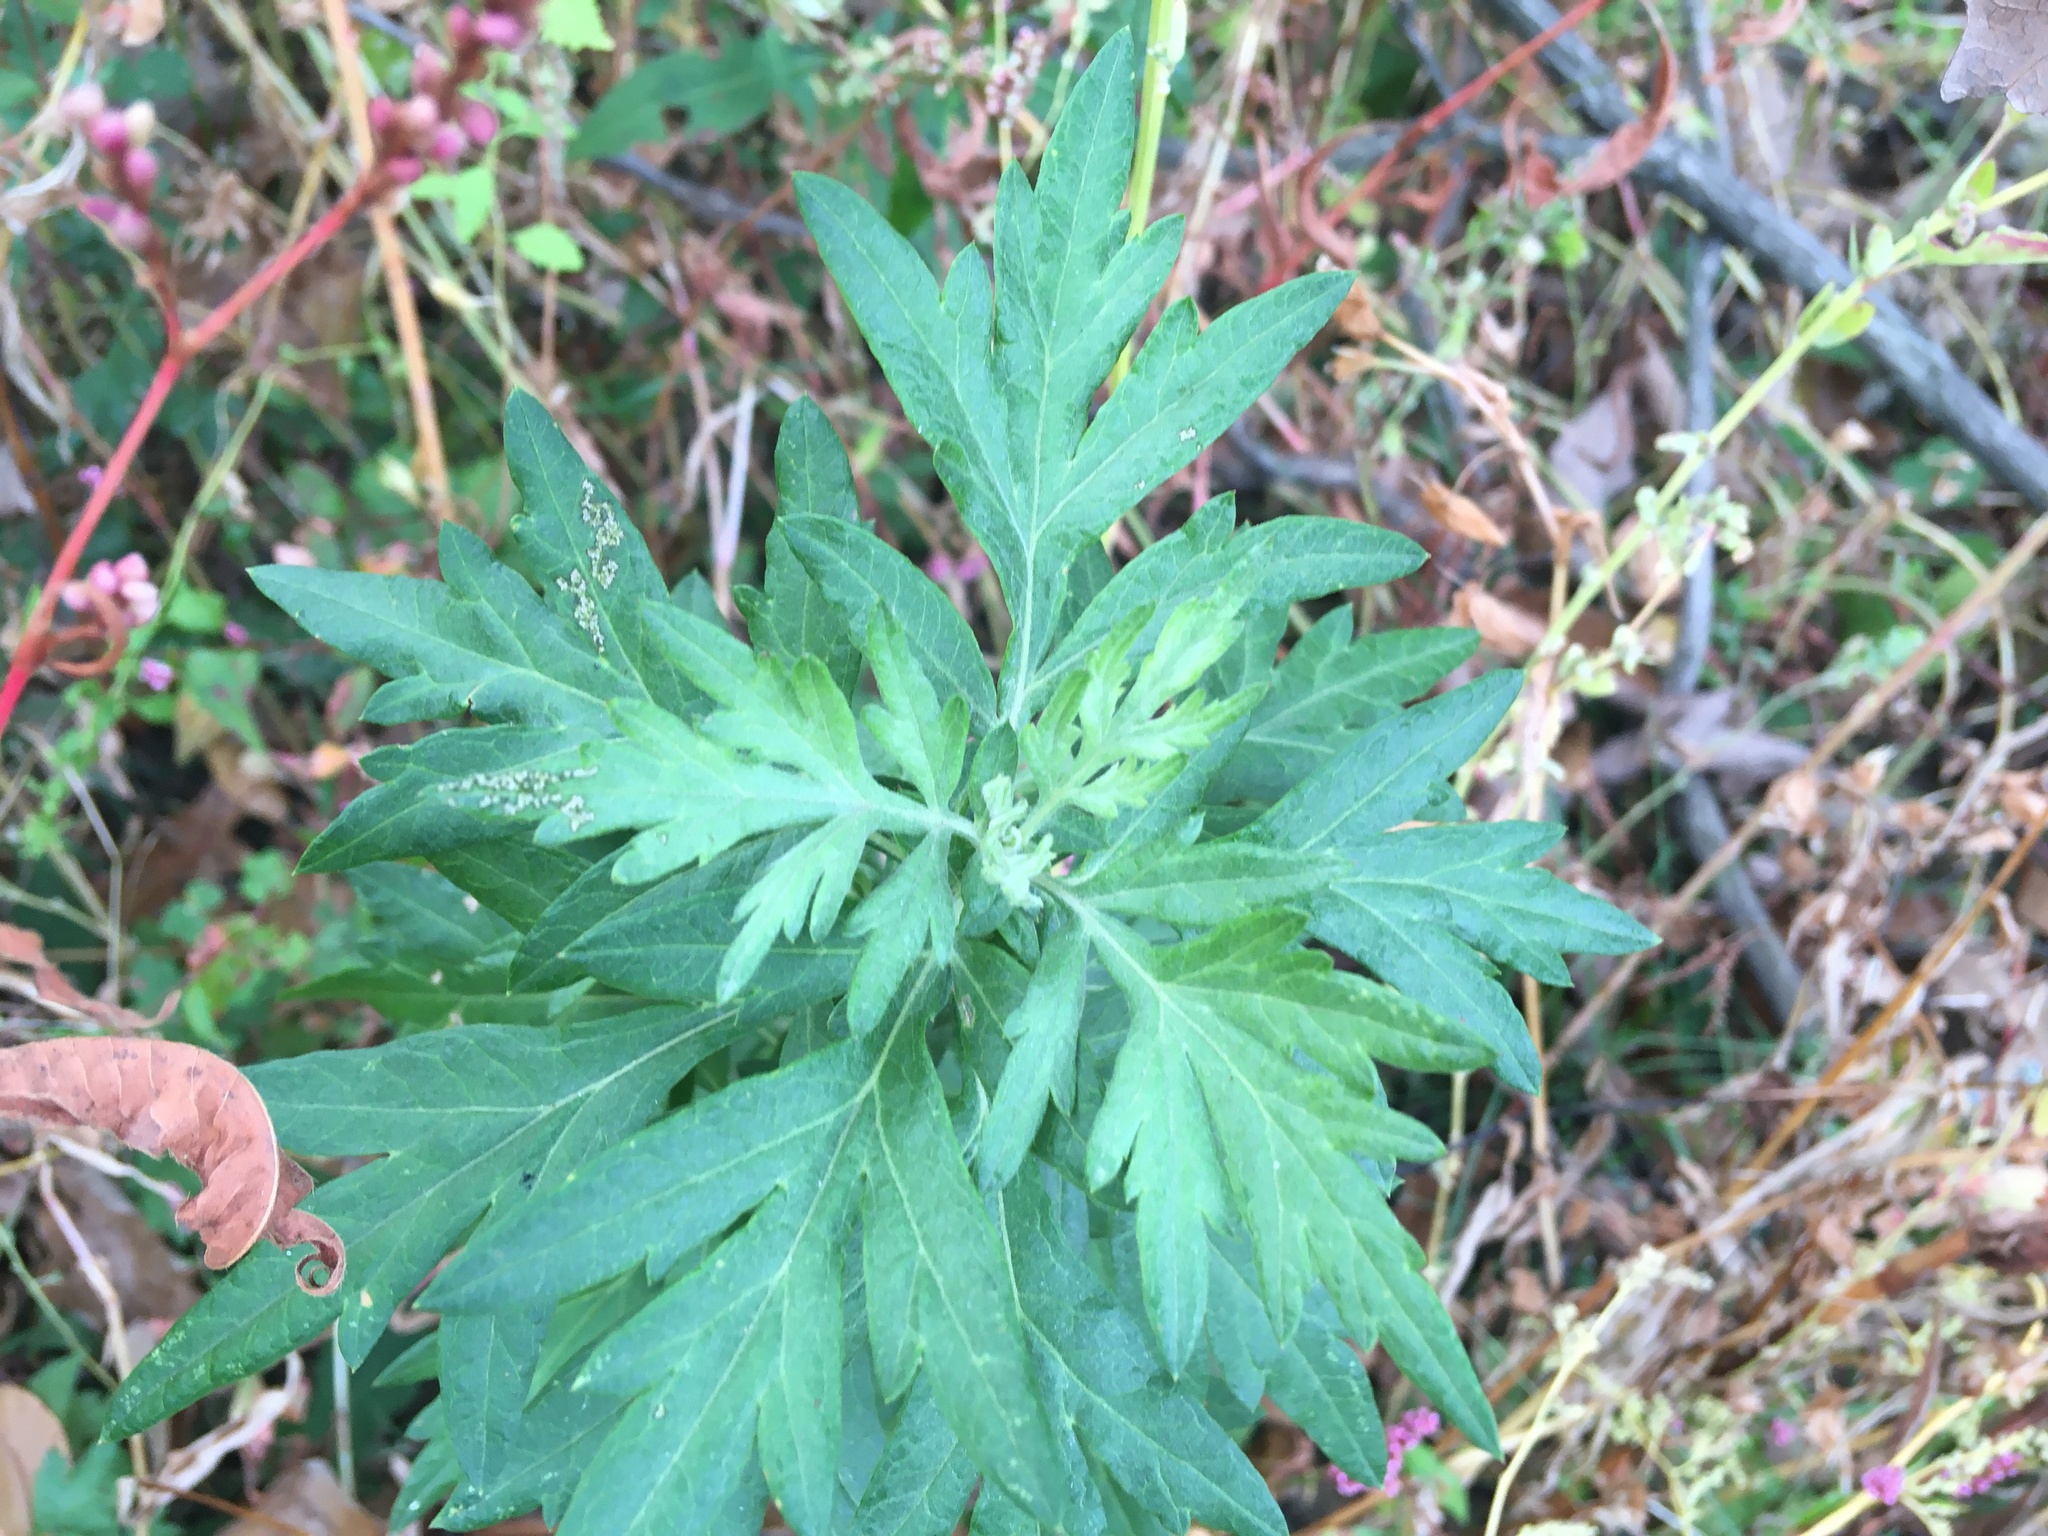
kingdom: Plantae
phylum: Tracheophyta
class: Magnoliopsida
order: Asterales
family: Asteraceae
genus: Artemisia
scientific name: Artemisia vulgaris
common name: Mugwort
